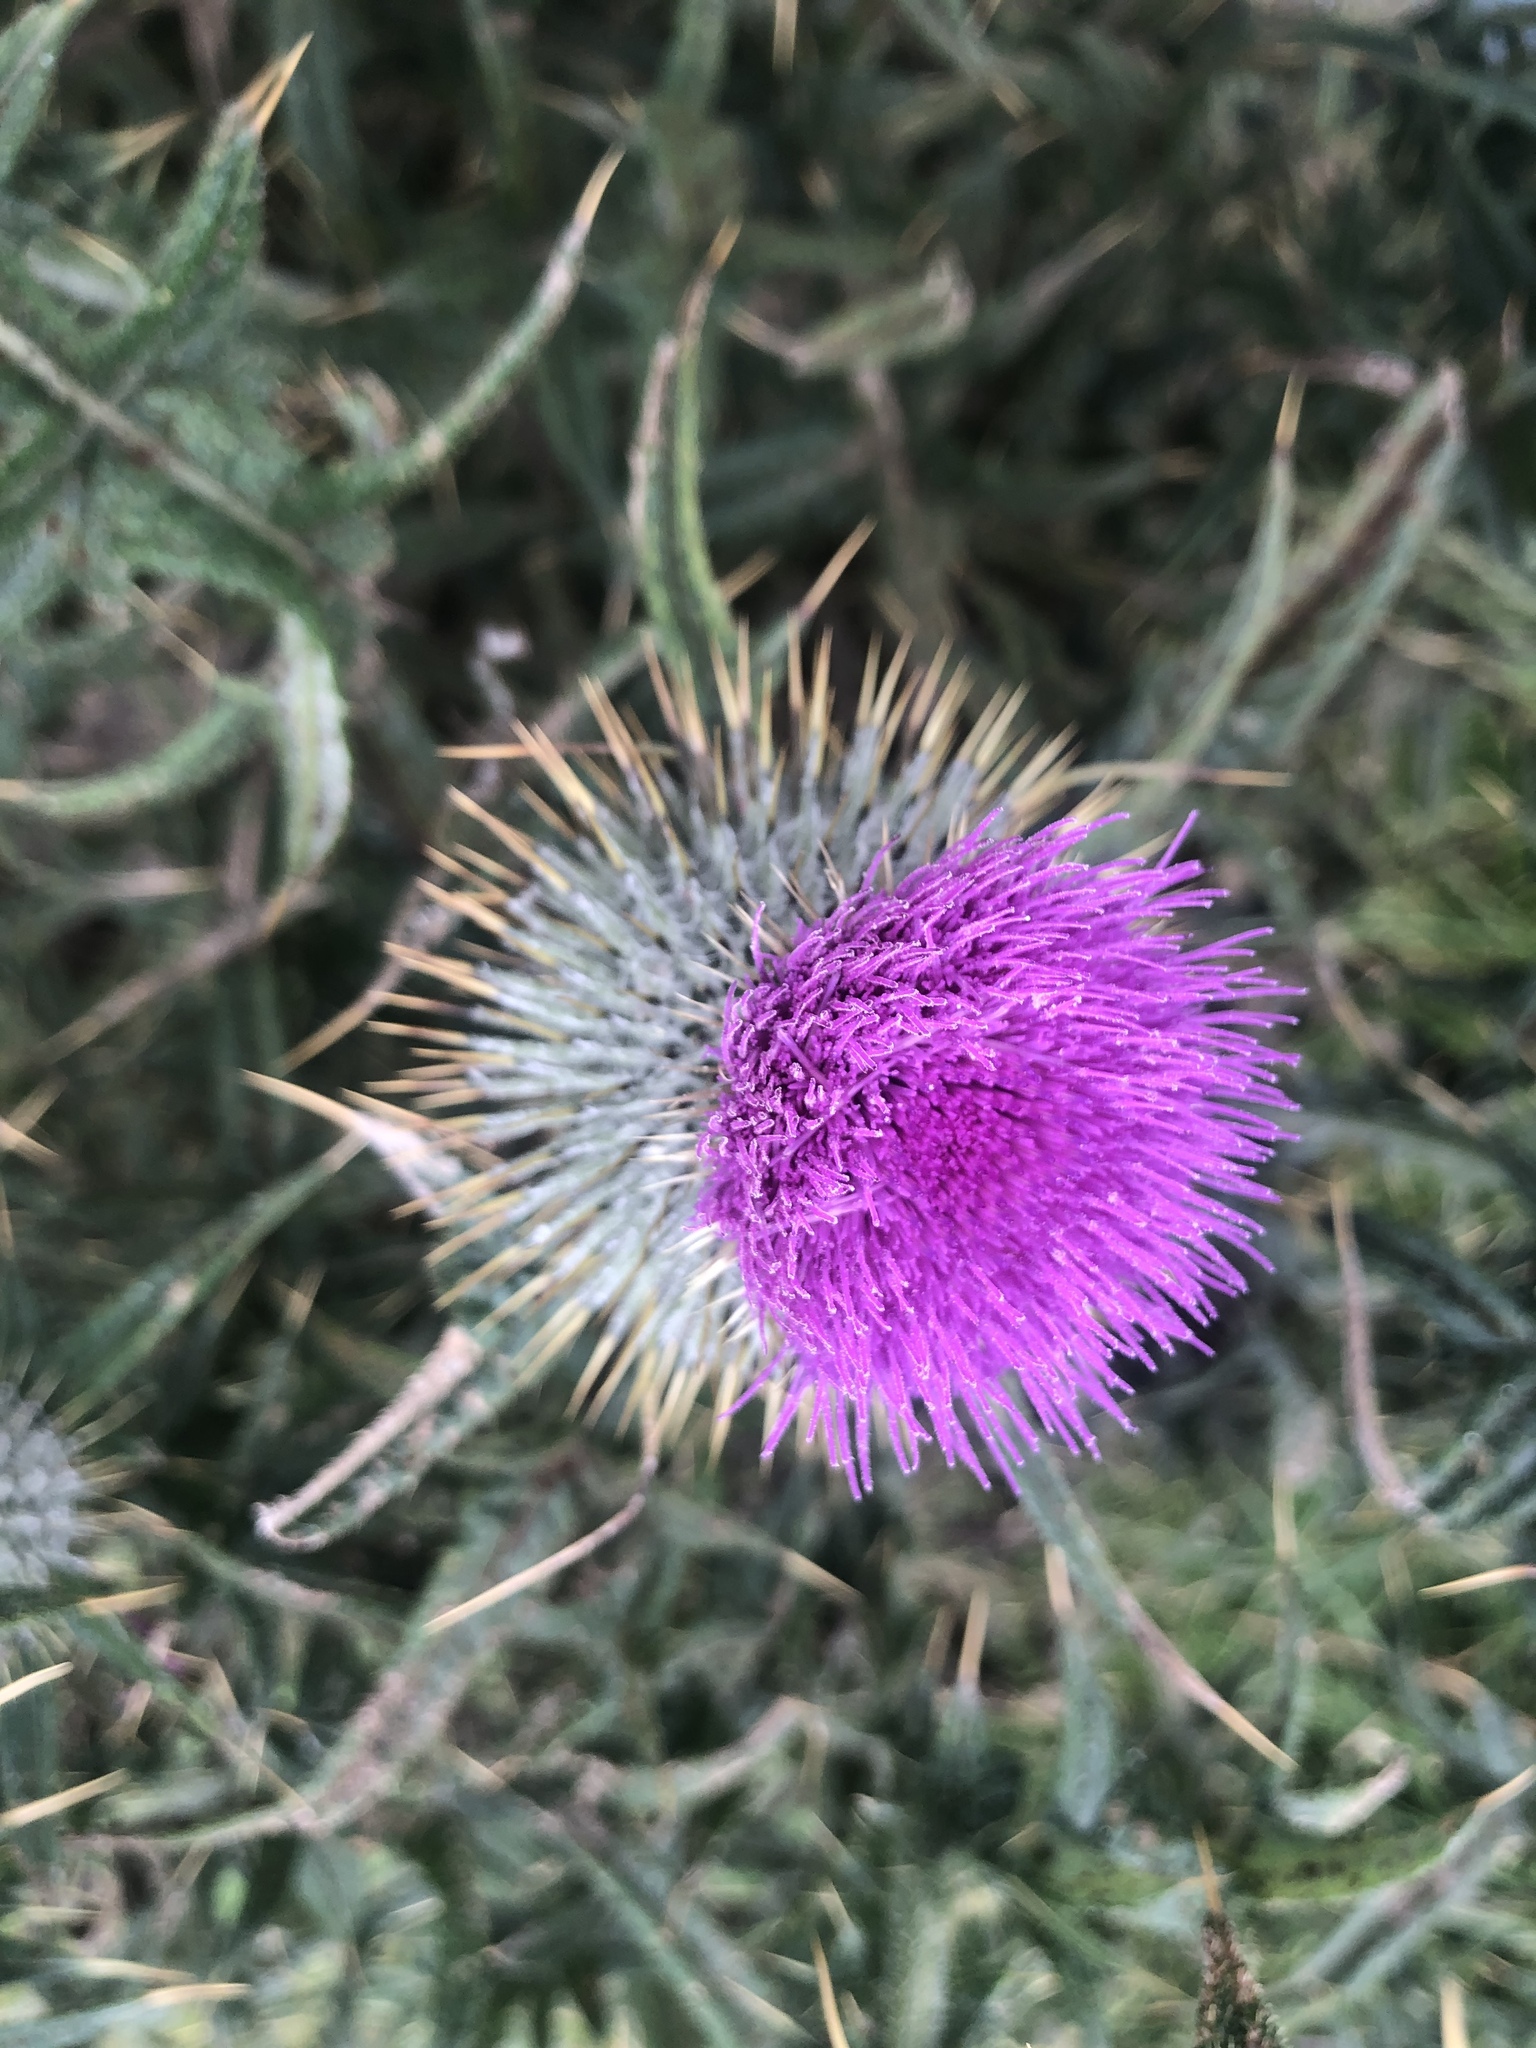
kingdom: Plantae
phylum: Tracheophyta
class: Magnoliopsida
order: Asterales
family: Asteraceae
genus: Cirsium
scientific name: Cirsium vulgare
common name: Bull thistle
